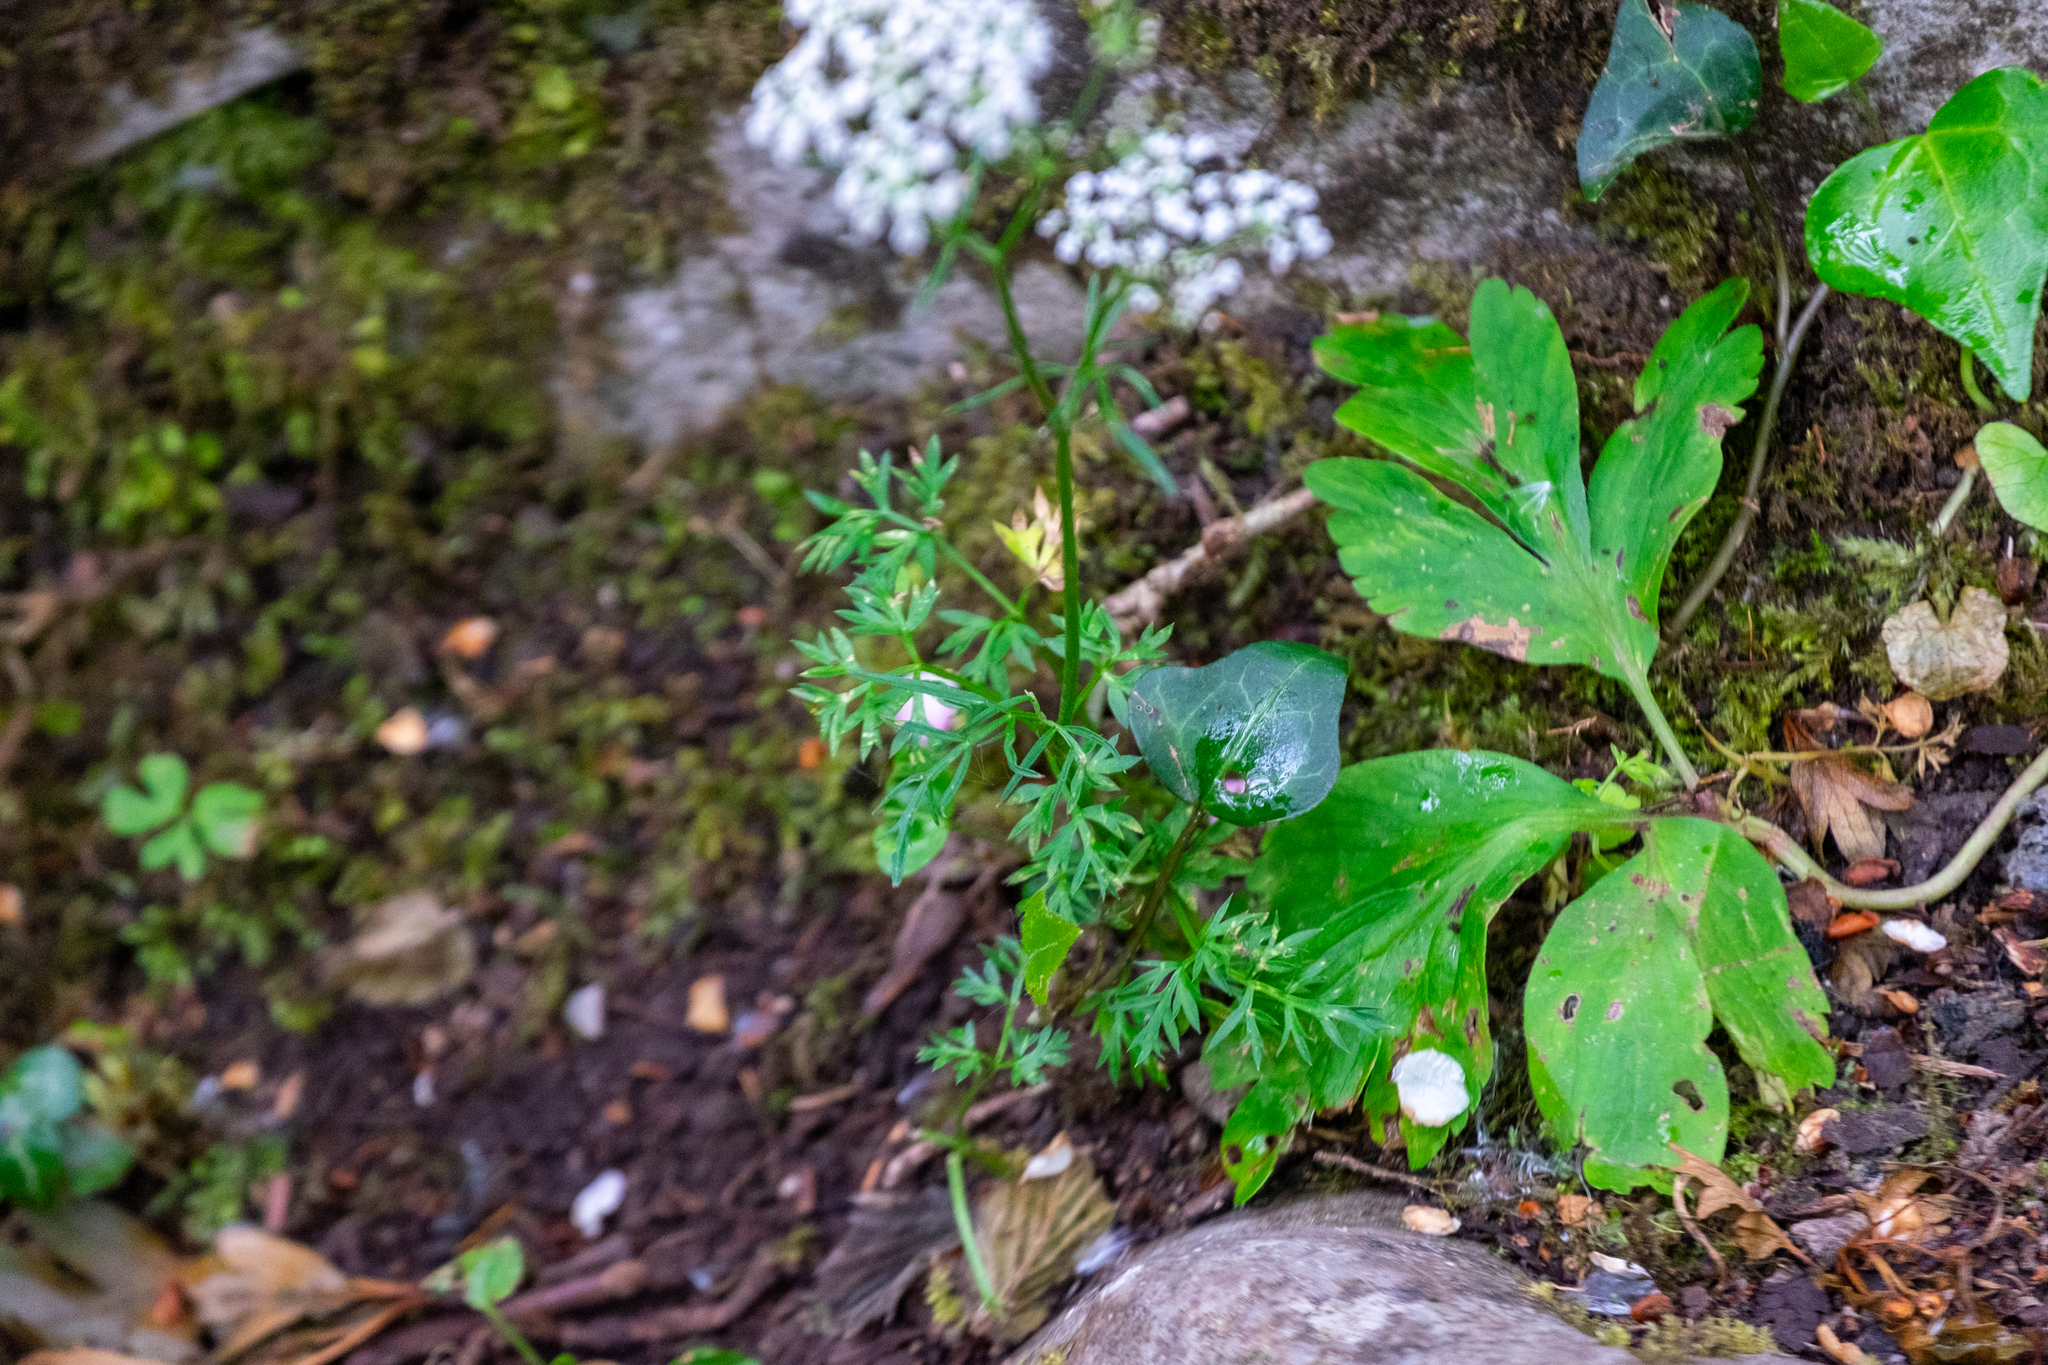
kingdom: Plantae
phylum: Tracheophyta
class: Magnoliopsida
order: Apiales
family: Apiaceae
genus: Conopodium
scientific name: Conopodium majus
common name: Pignut
